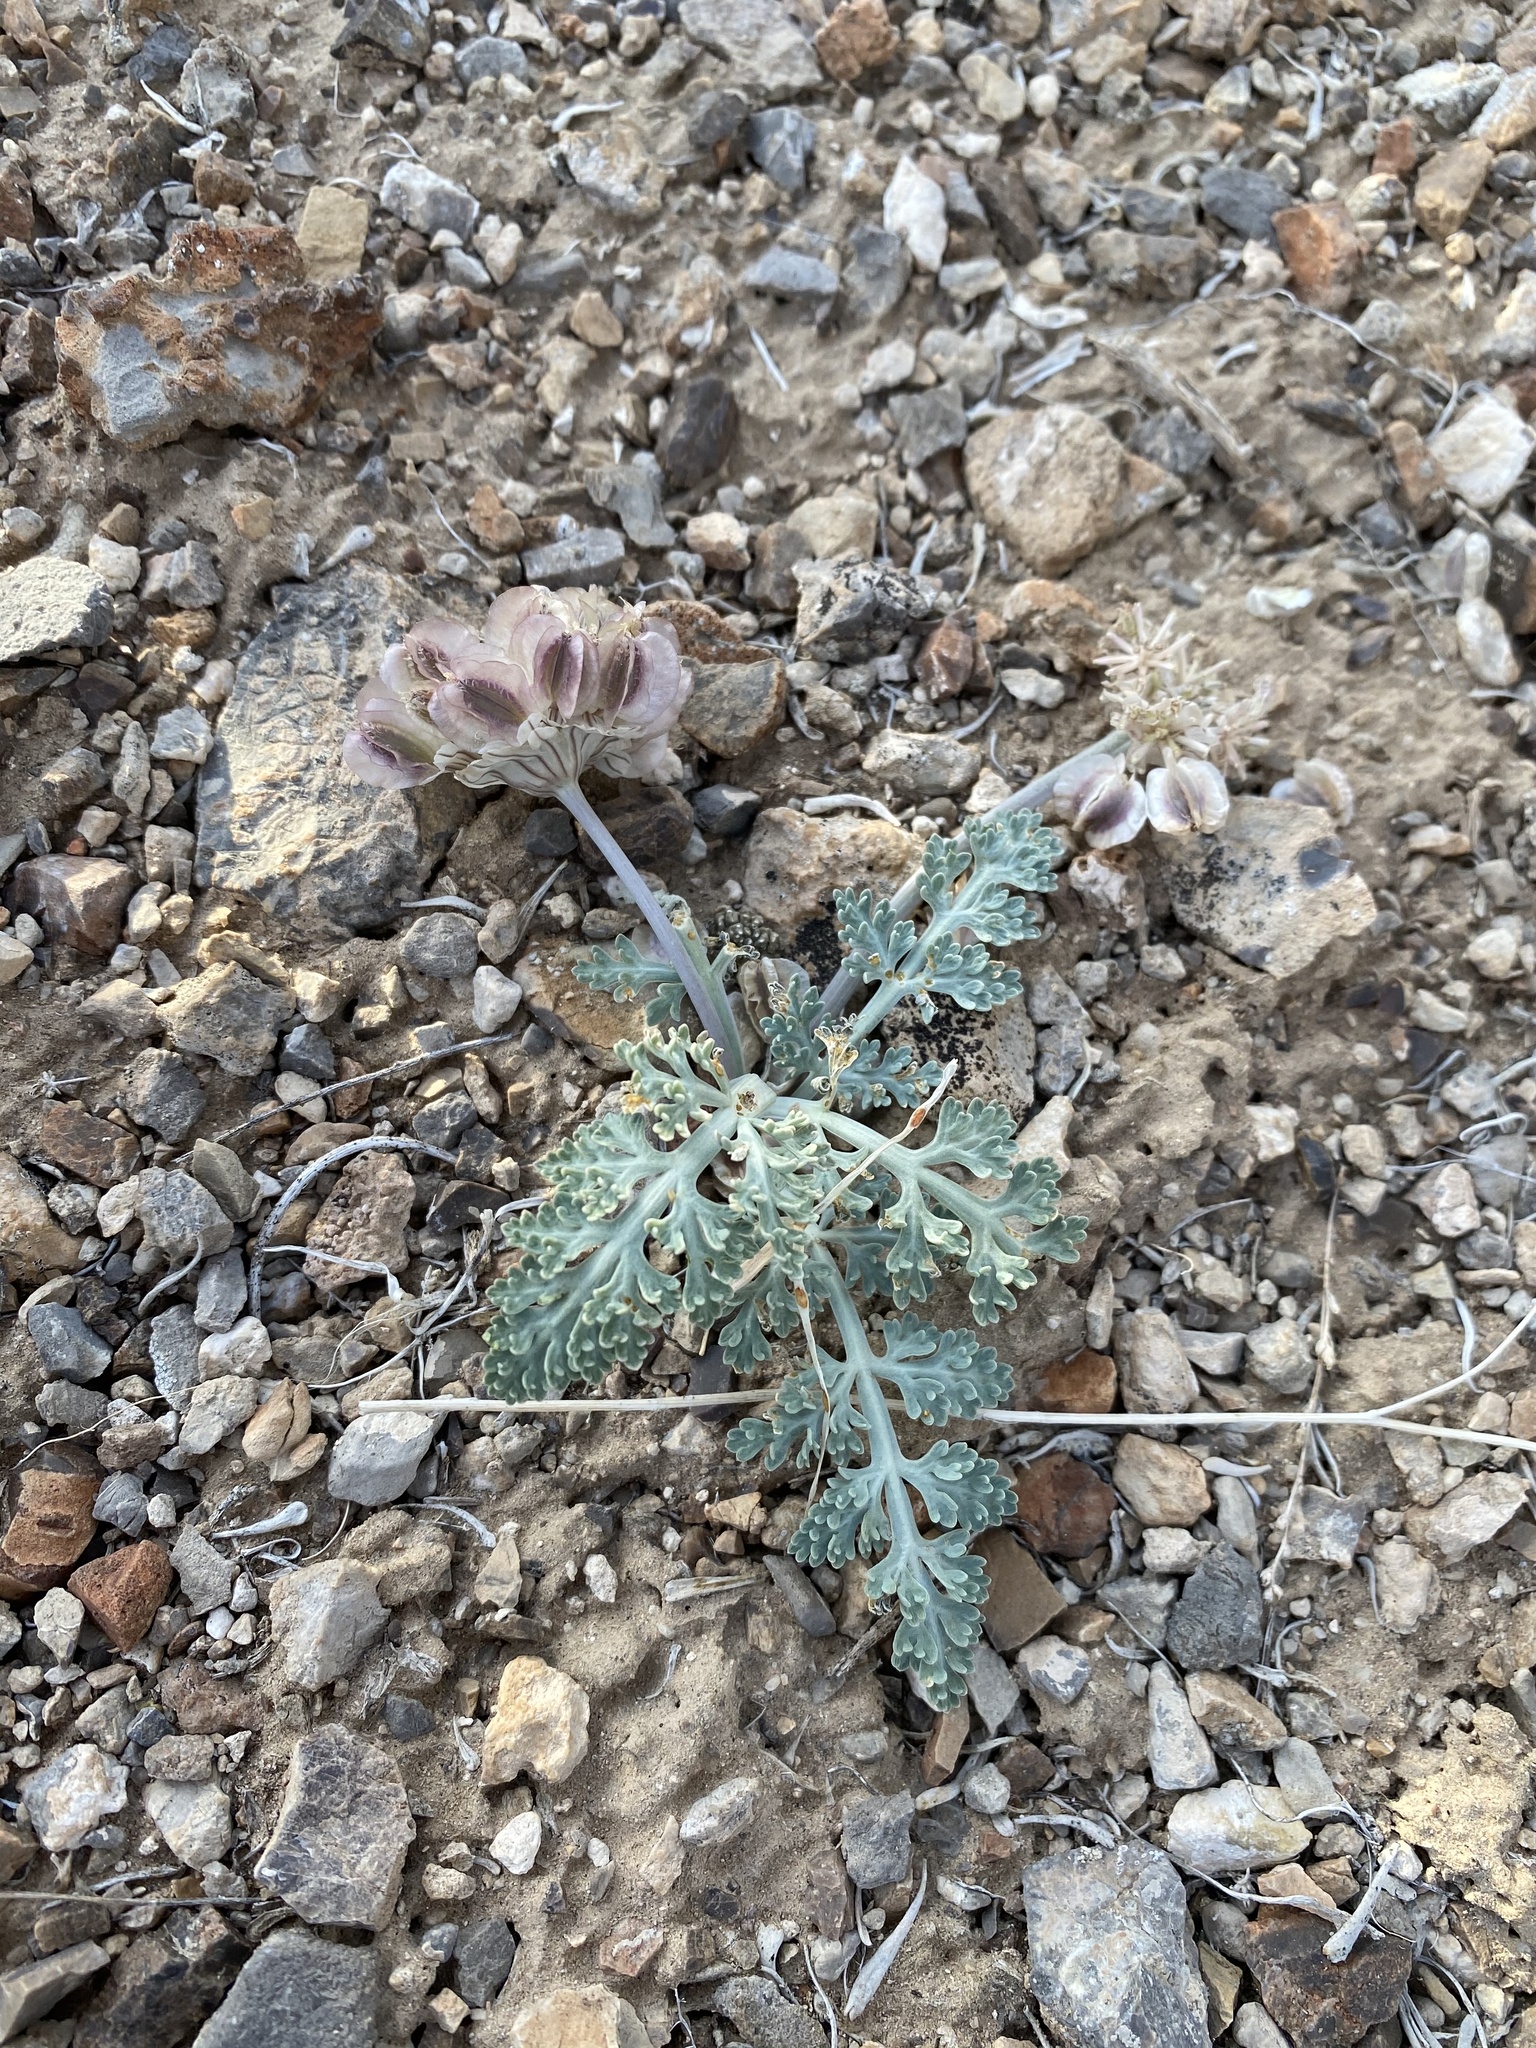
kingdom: Plantae
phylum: Tracheophyta
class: Magnoliopsida
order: Apiales
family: Apiaceae
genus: Vesper
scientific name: Vesper purpurascens
